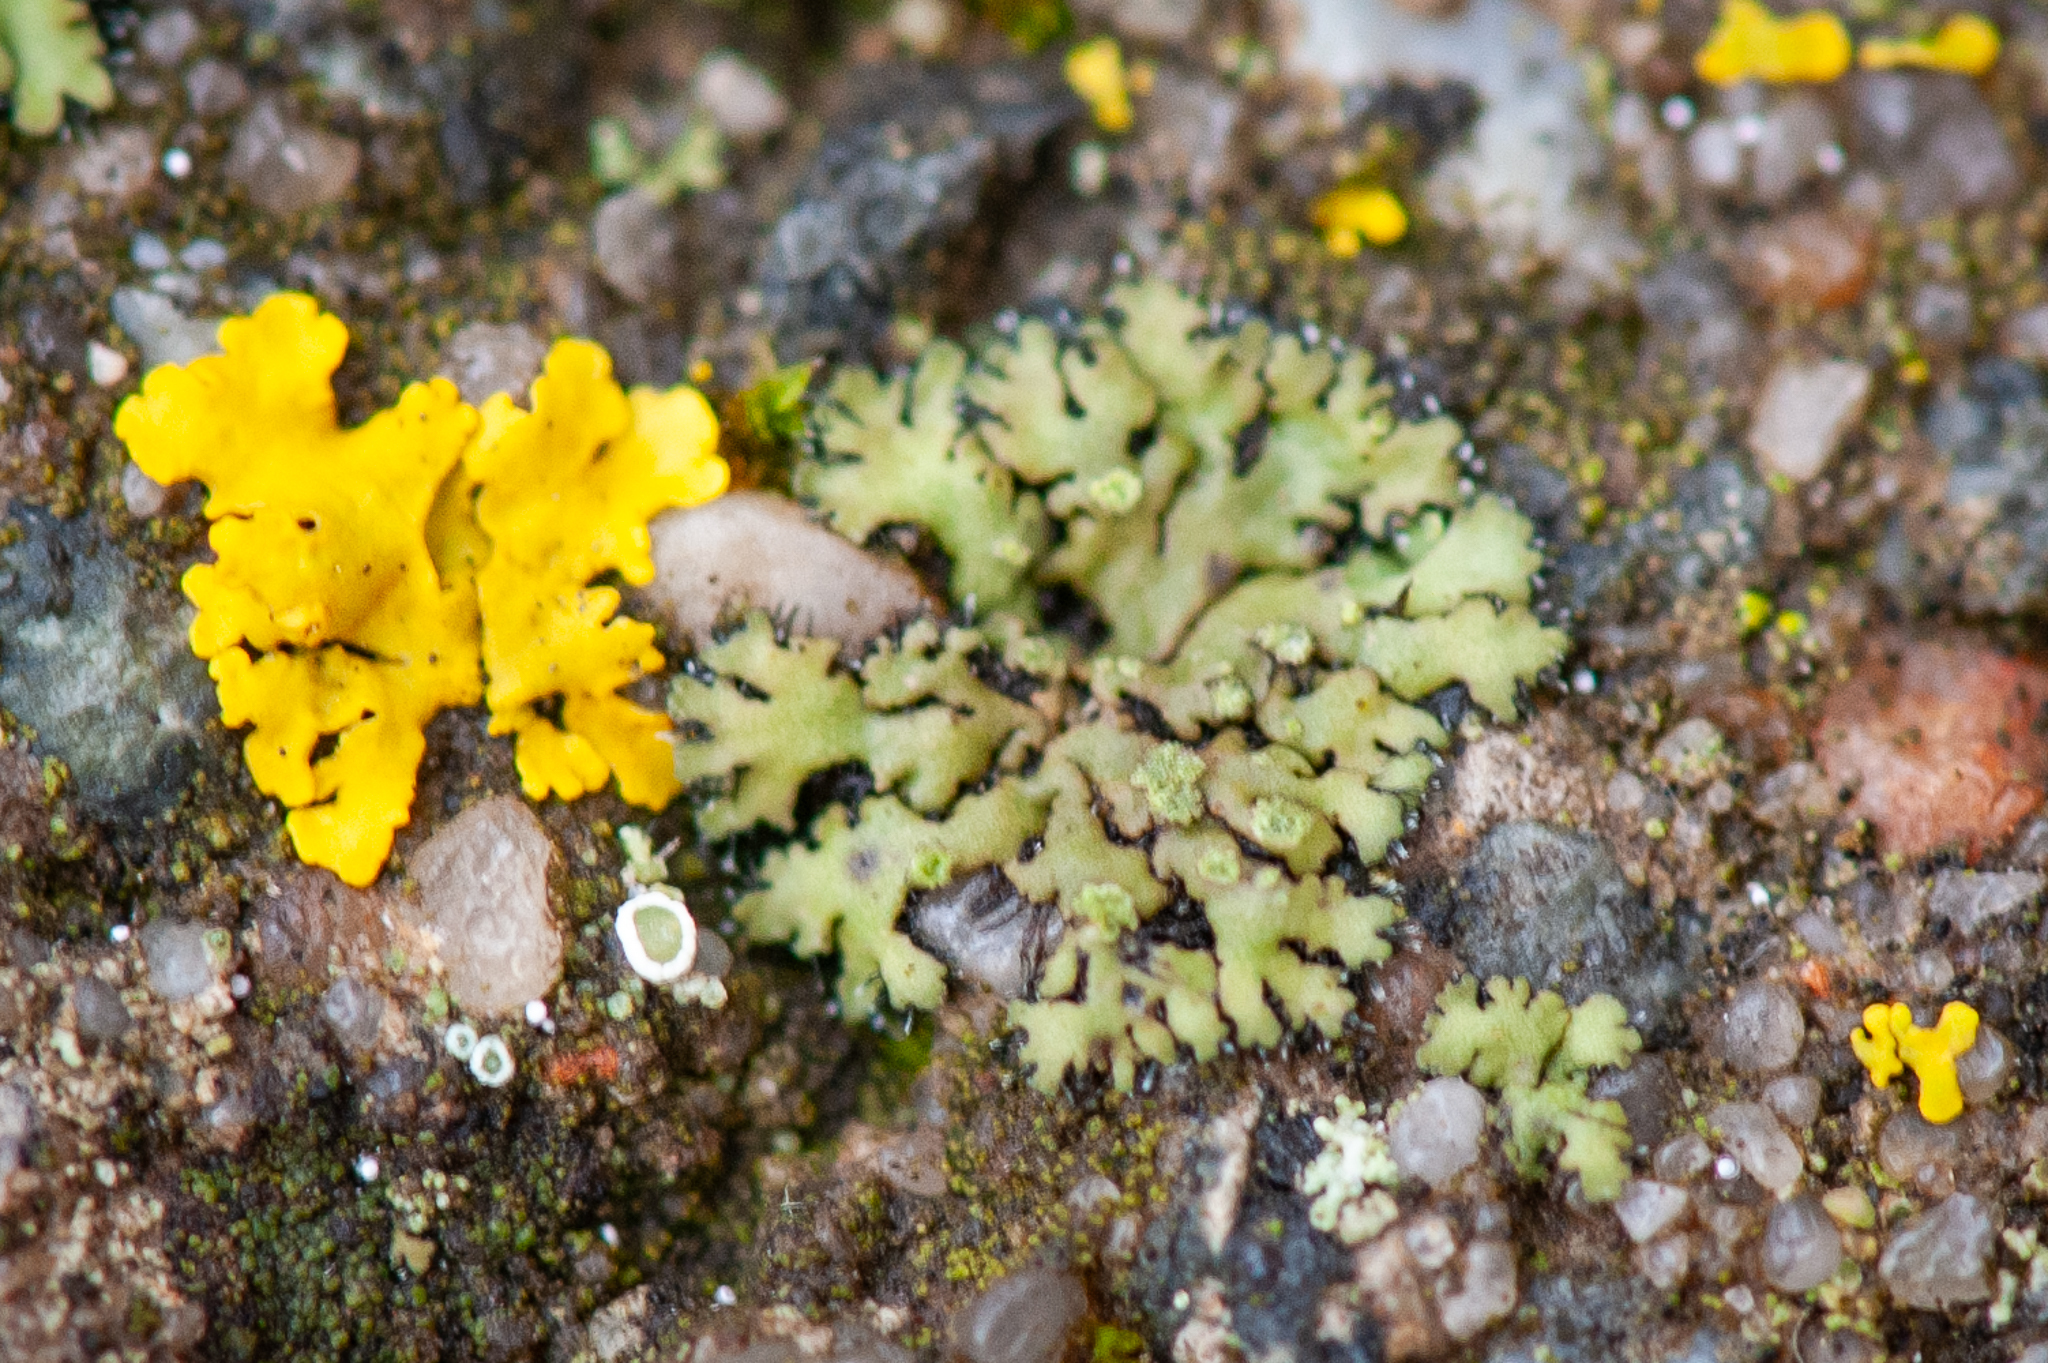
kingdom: Fungi
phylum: Ascomycota
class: Lecanoromycetes
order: Caliciales
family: Physciaceae
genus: Phaeophyscia
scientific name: Phaeophyscia orbicularis
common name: Mealy shadow lichen
